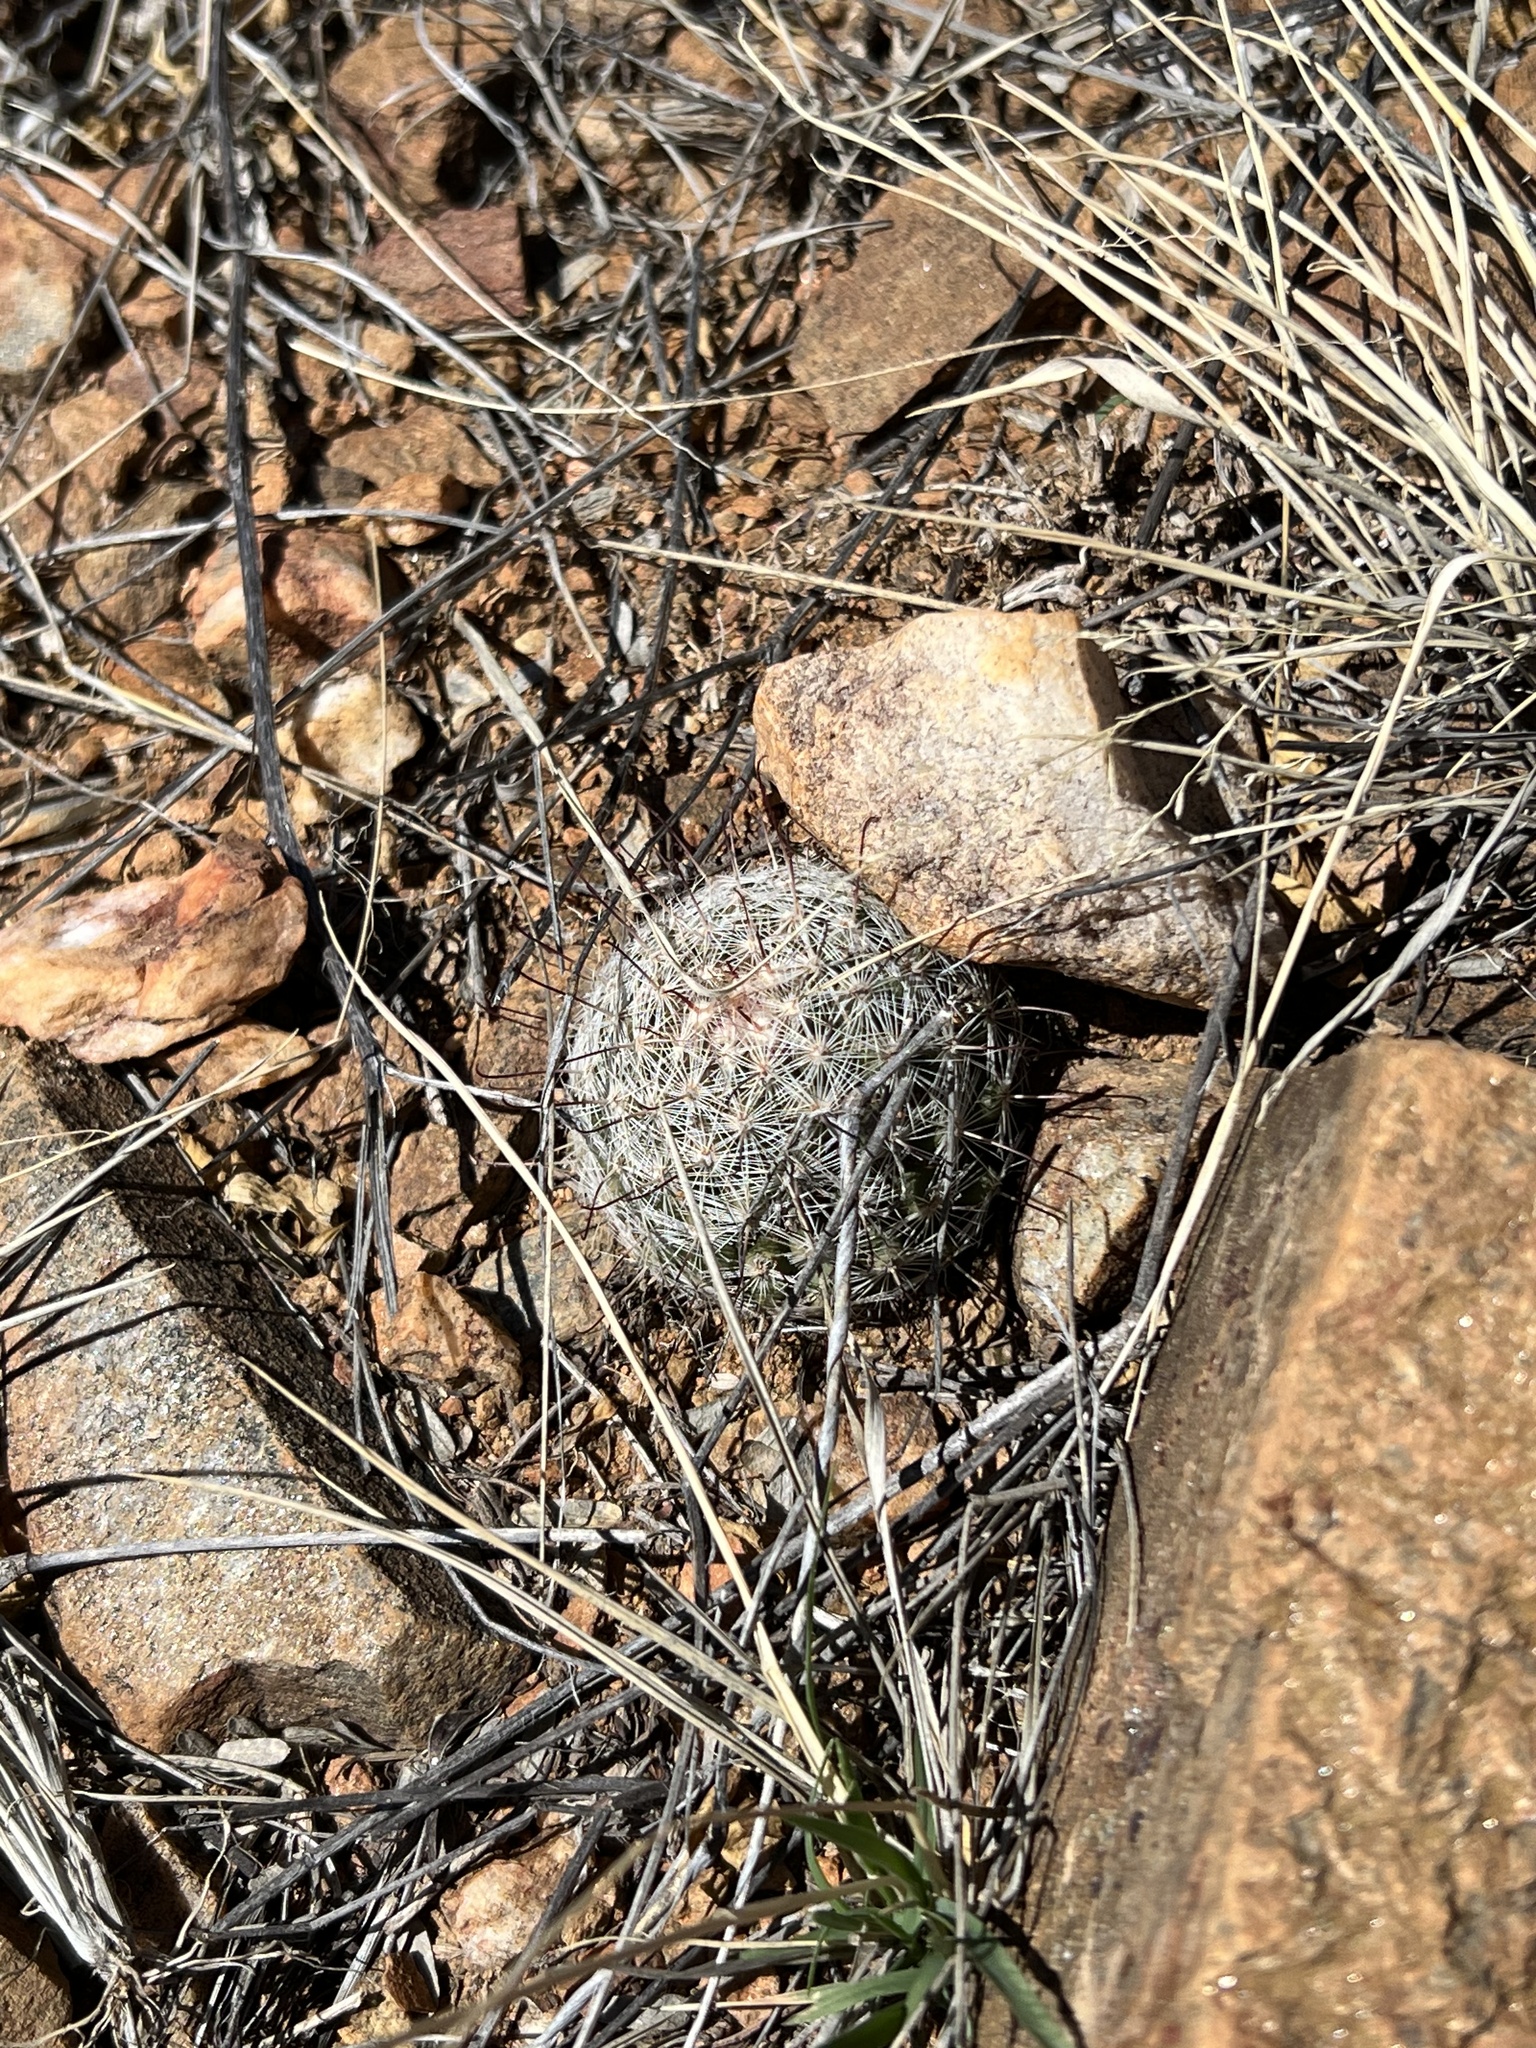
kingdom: Plantae
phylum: Tracheophyta
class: Magnoliopsida
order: Caryophyllales
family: Cactaceae
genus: Cochemiea
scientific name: Cochemiea grahamii
